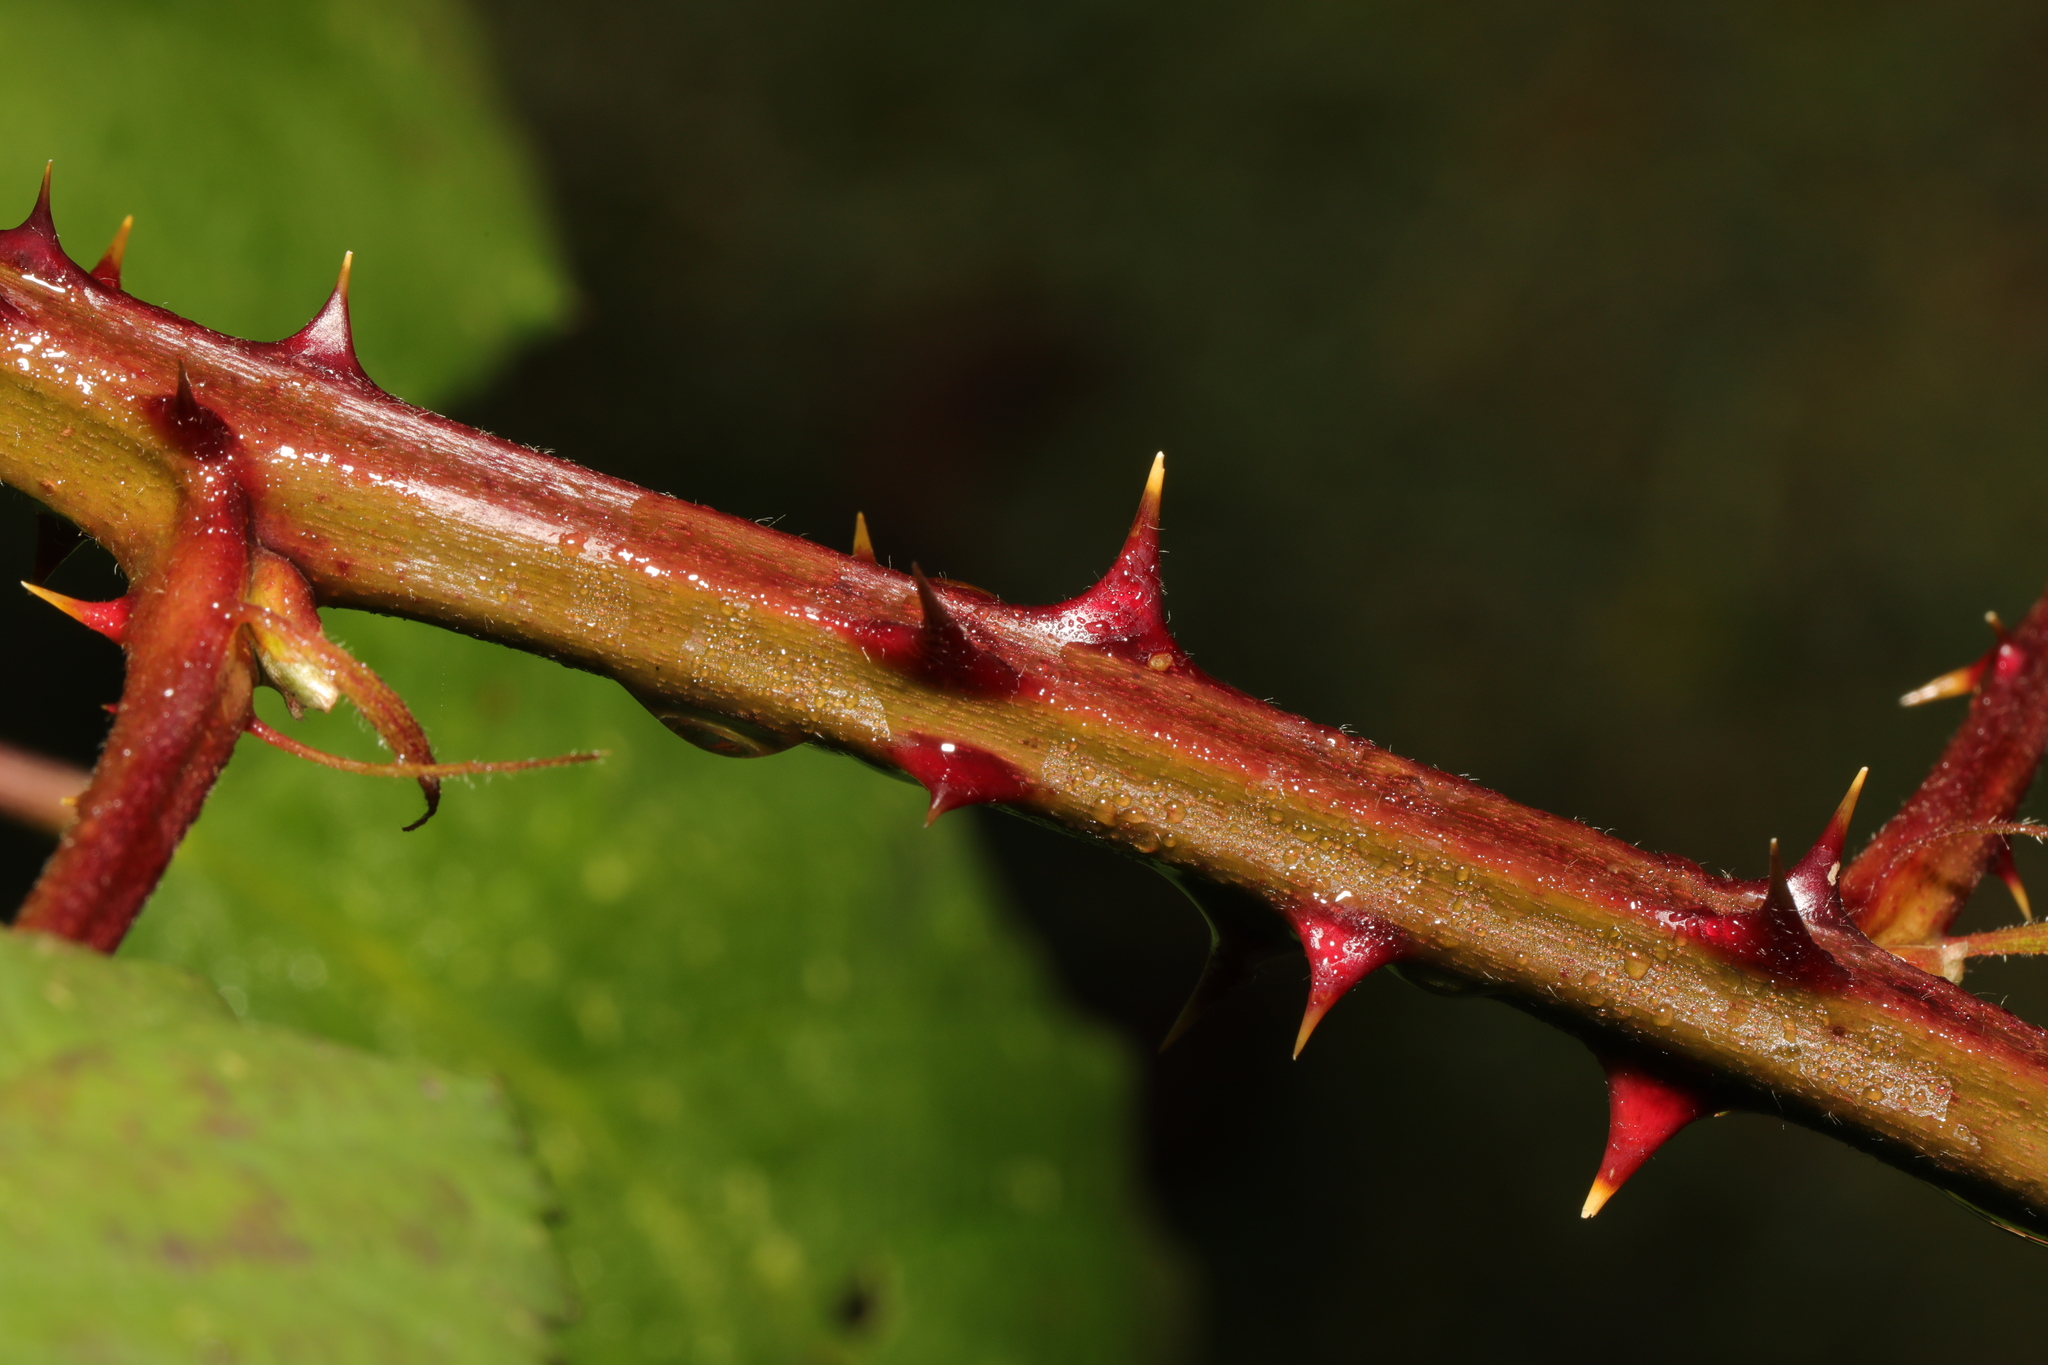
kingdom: Plantae
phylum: Tracheophyta
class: Magnoliopsida
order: Rosales
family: Rosaceae
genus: Rubus
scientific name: Rubus armeniacus
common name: Himalayan blackberry
